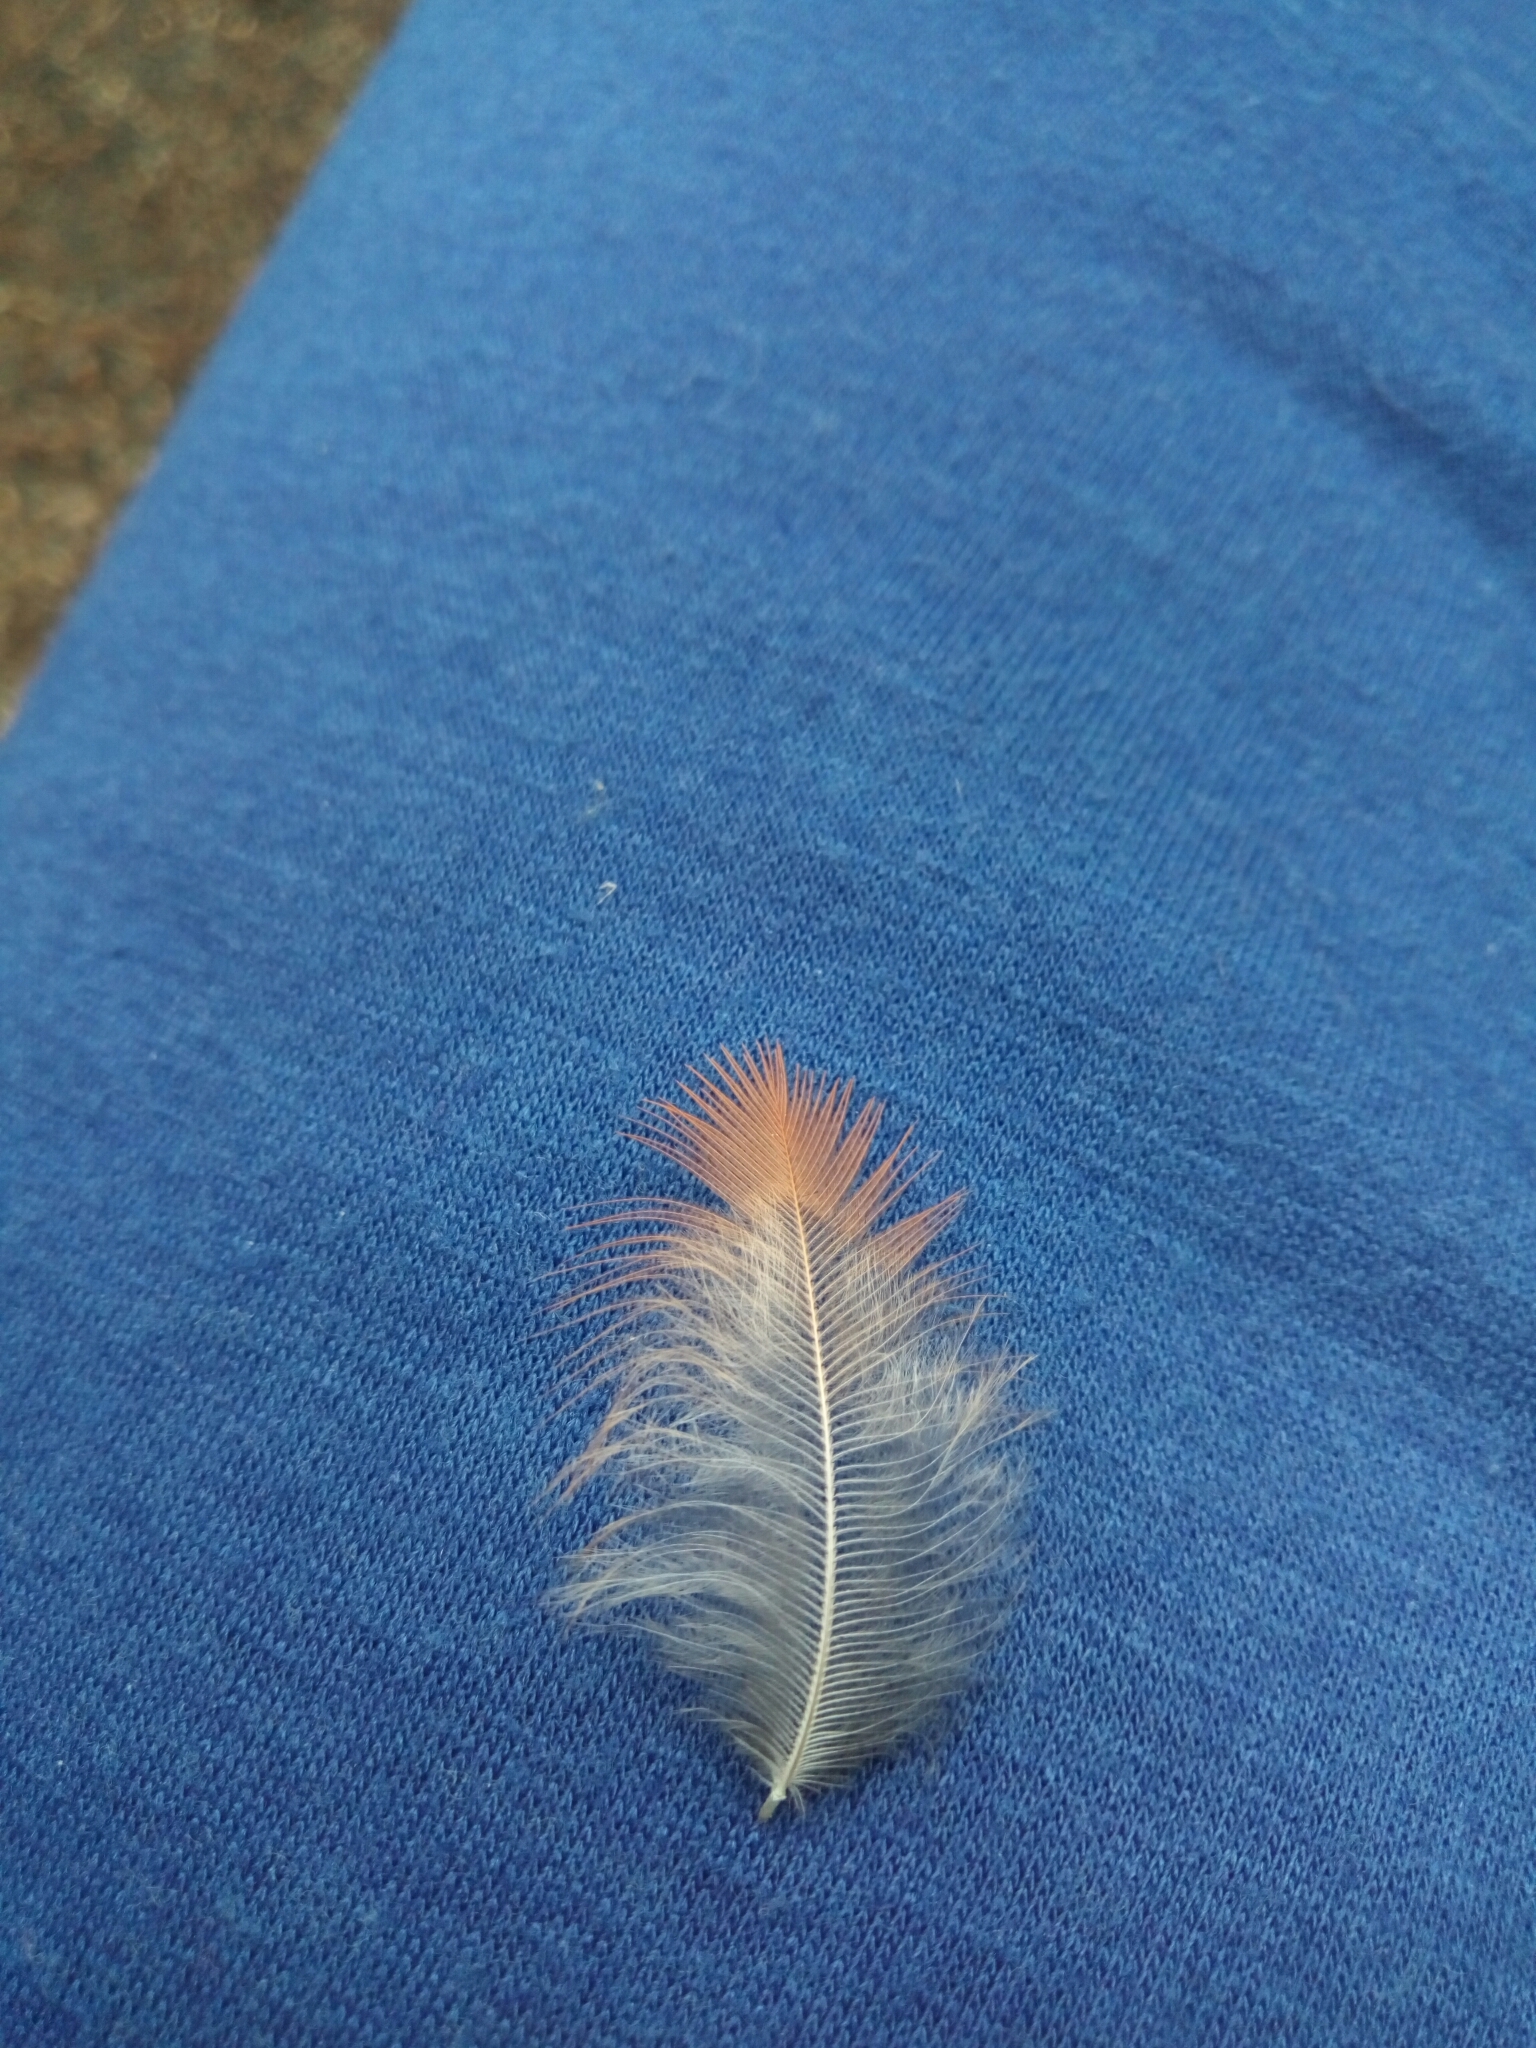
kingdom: Animalia
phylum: Chordata
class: Aves
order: Passeriformes
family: Cardinalidae
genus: Cardinalis
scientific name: Cardinalis cardinalis
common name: Northern cardinal
